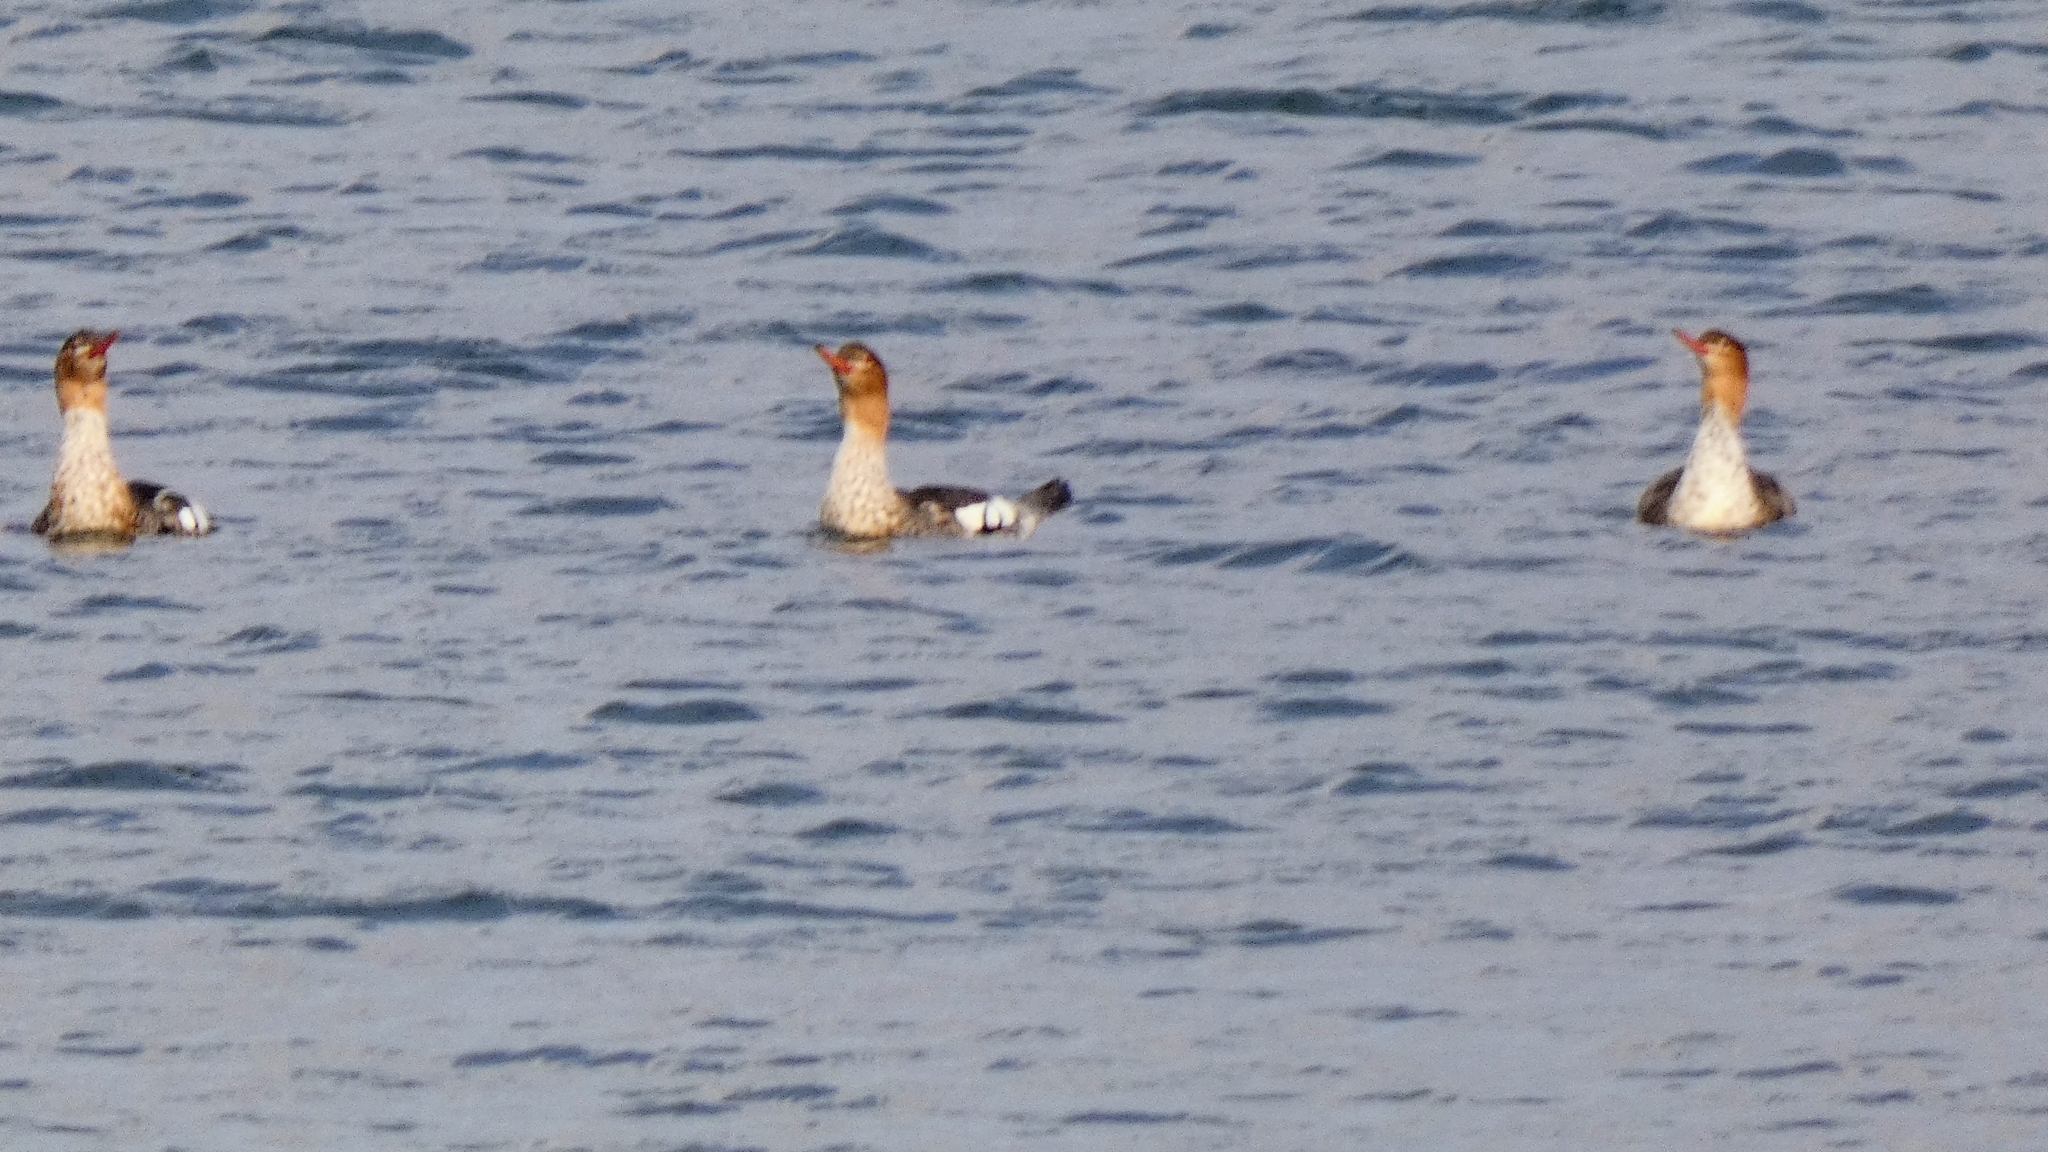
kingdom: Animalia
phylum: Chordata
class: Aves
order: Anseriformes
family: Anatidae
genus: Mergus
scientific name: Mergus serrator
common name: Red-breasted merganser
